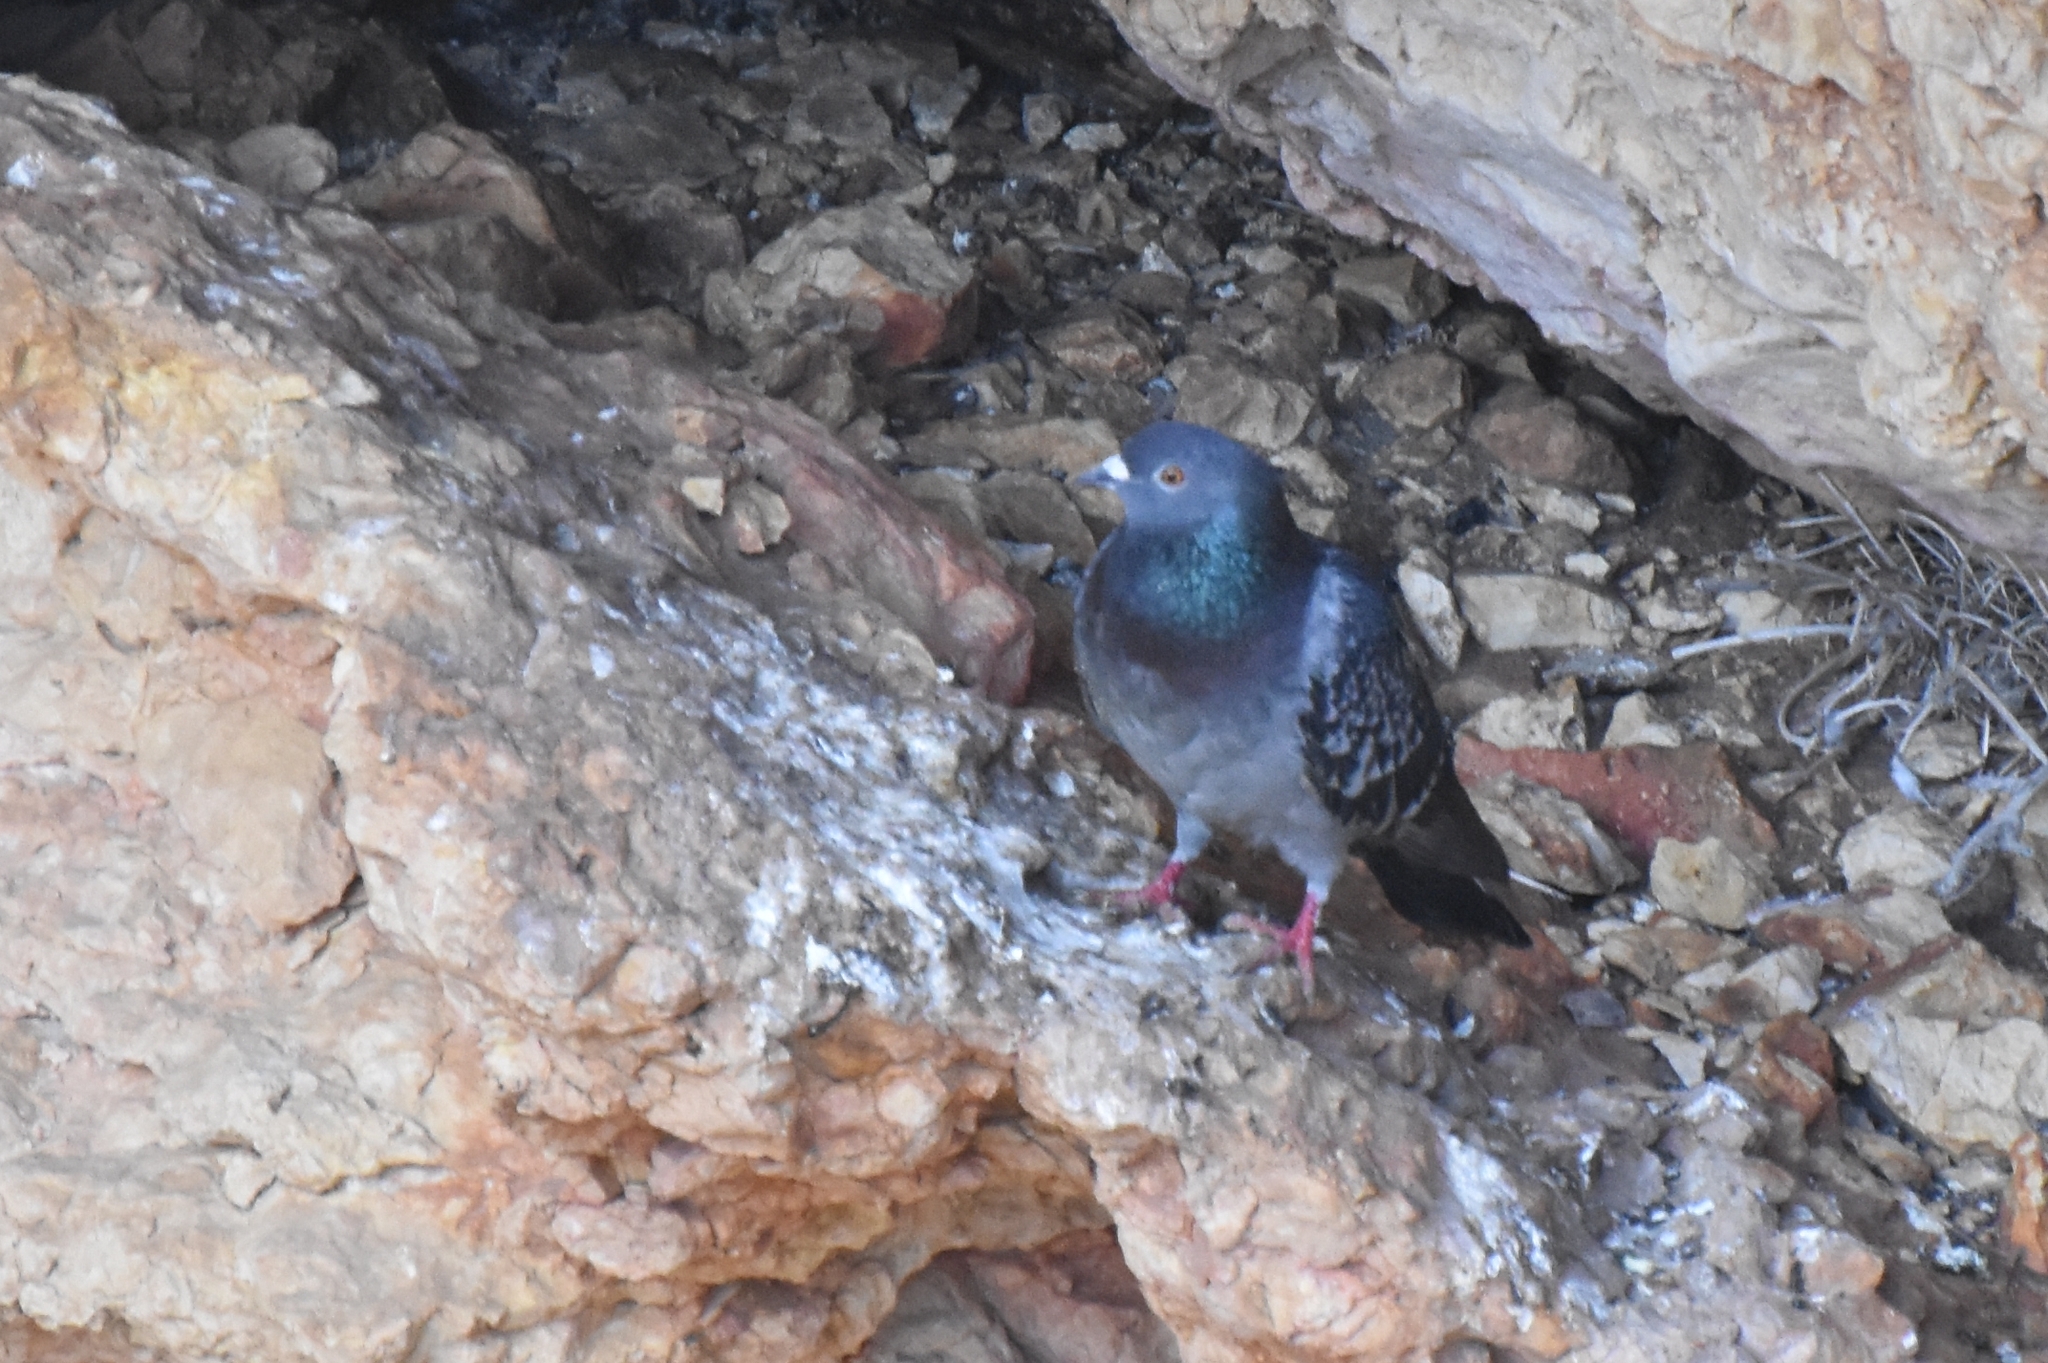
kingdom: Animalia
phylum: Chordata
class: Aves
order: Columbiformes
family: Columbidae
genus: Columba
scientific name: Columba livia
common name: Rock pigeon
